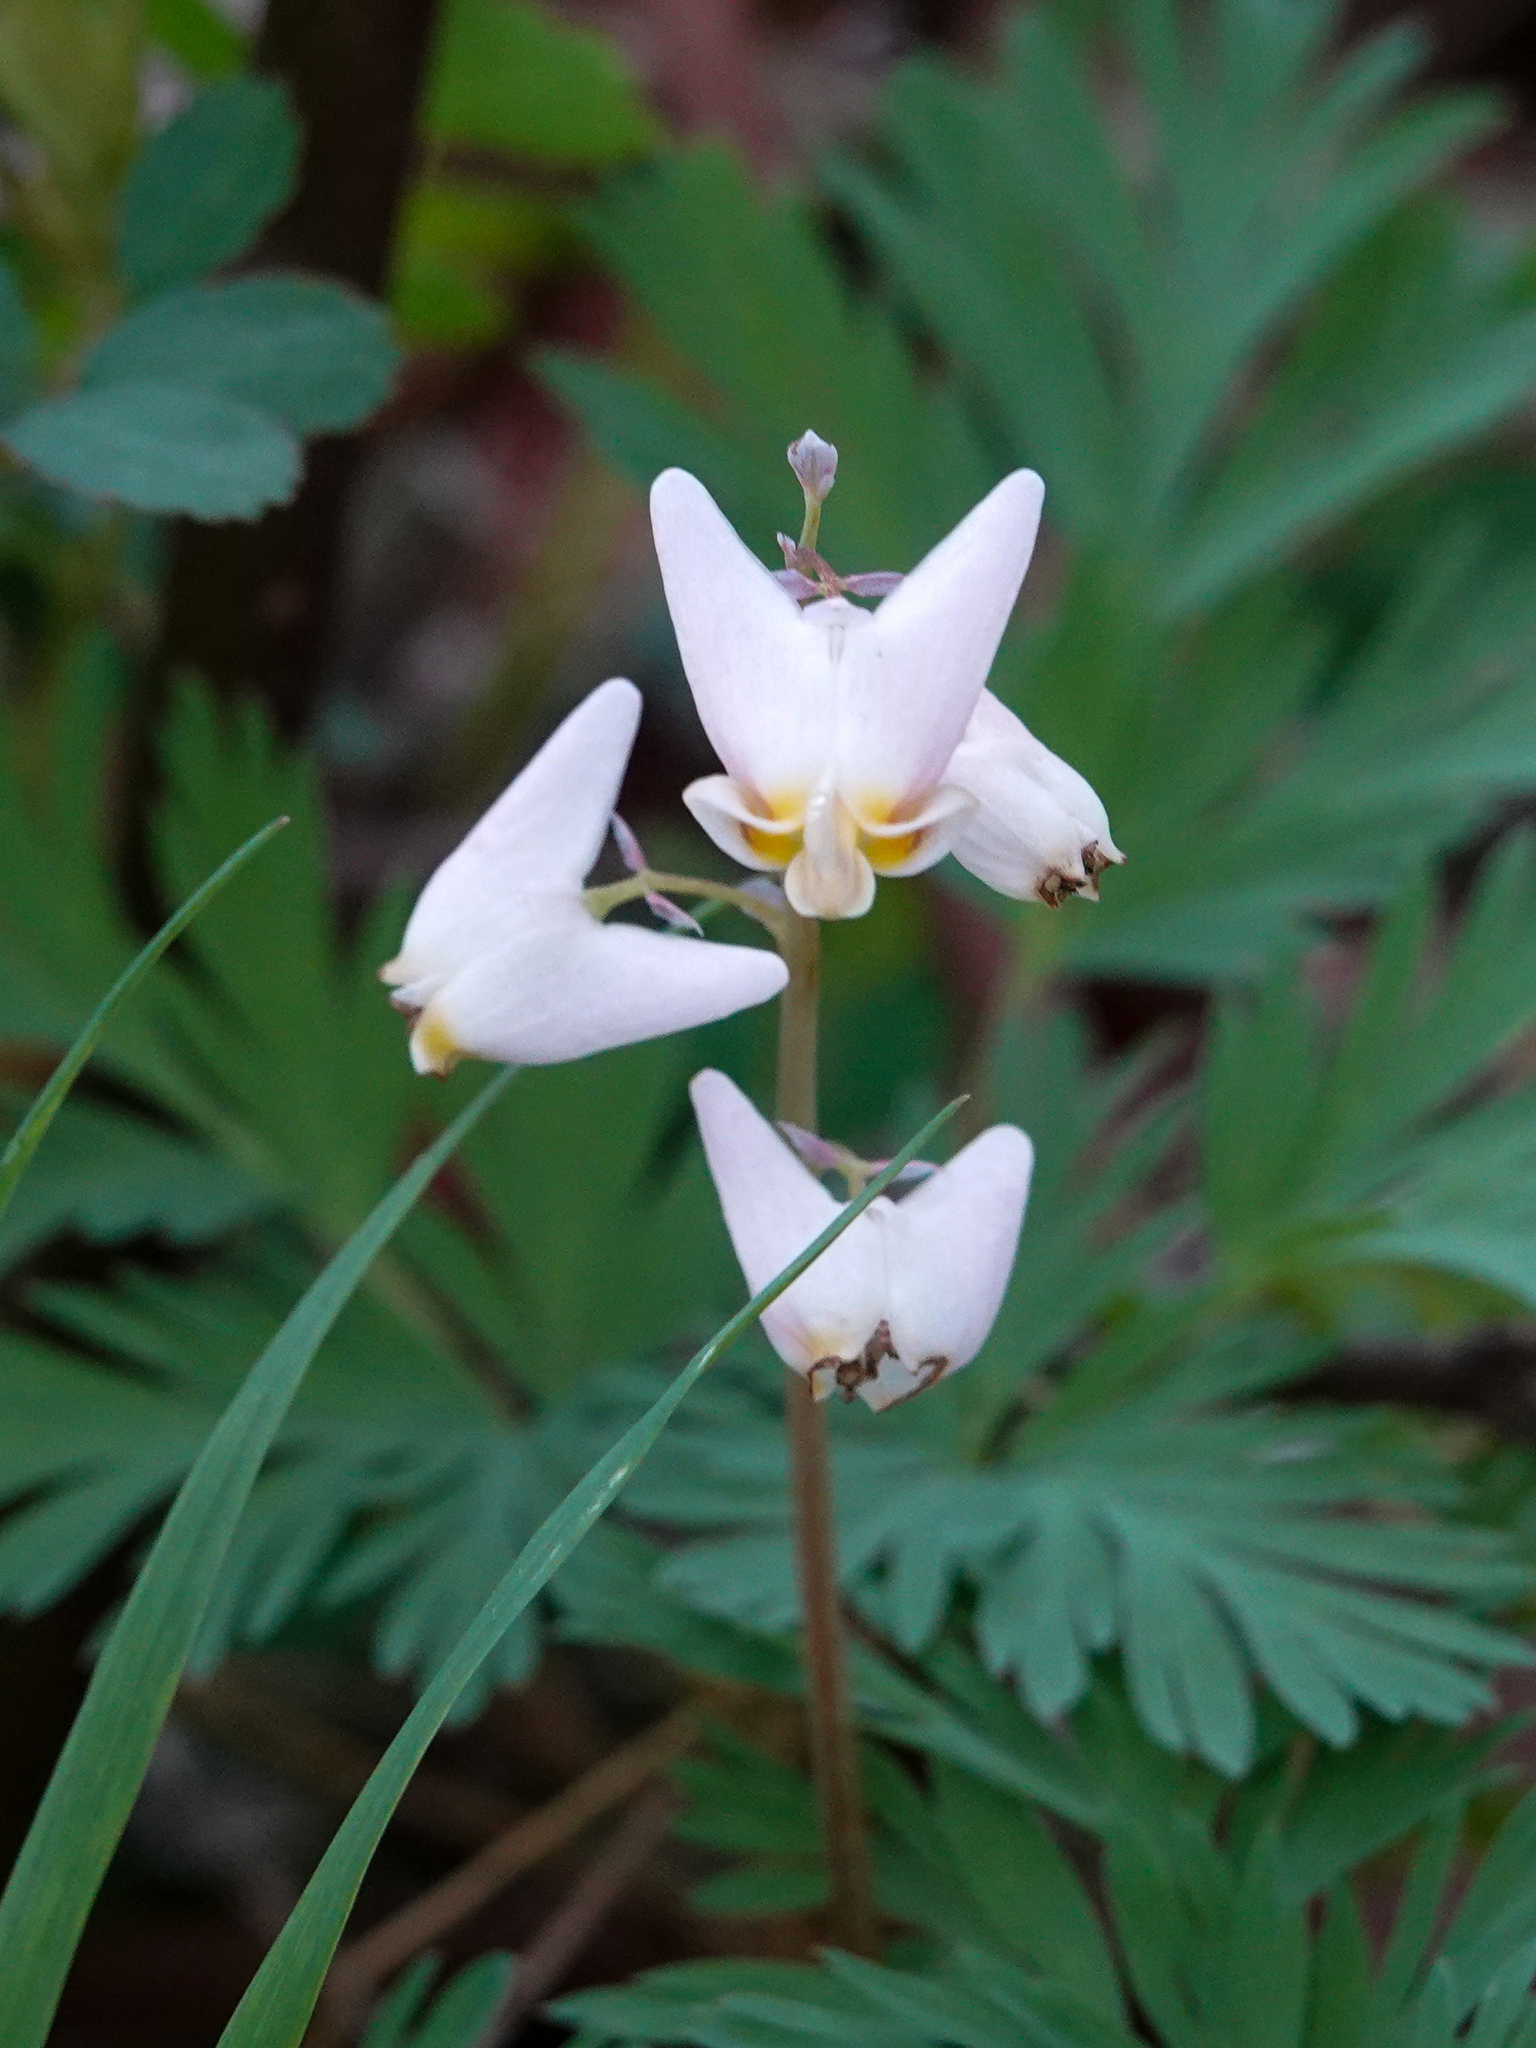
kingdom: Plantae
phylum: Tracheophyta
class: Magnoliopsida
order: Ranunculales
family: Papaveraceae
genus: Dicentra
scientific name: Dicentra cucullaria
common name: Dutchman's breeches
